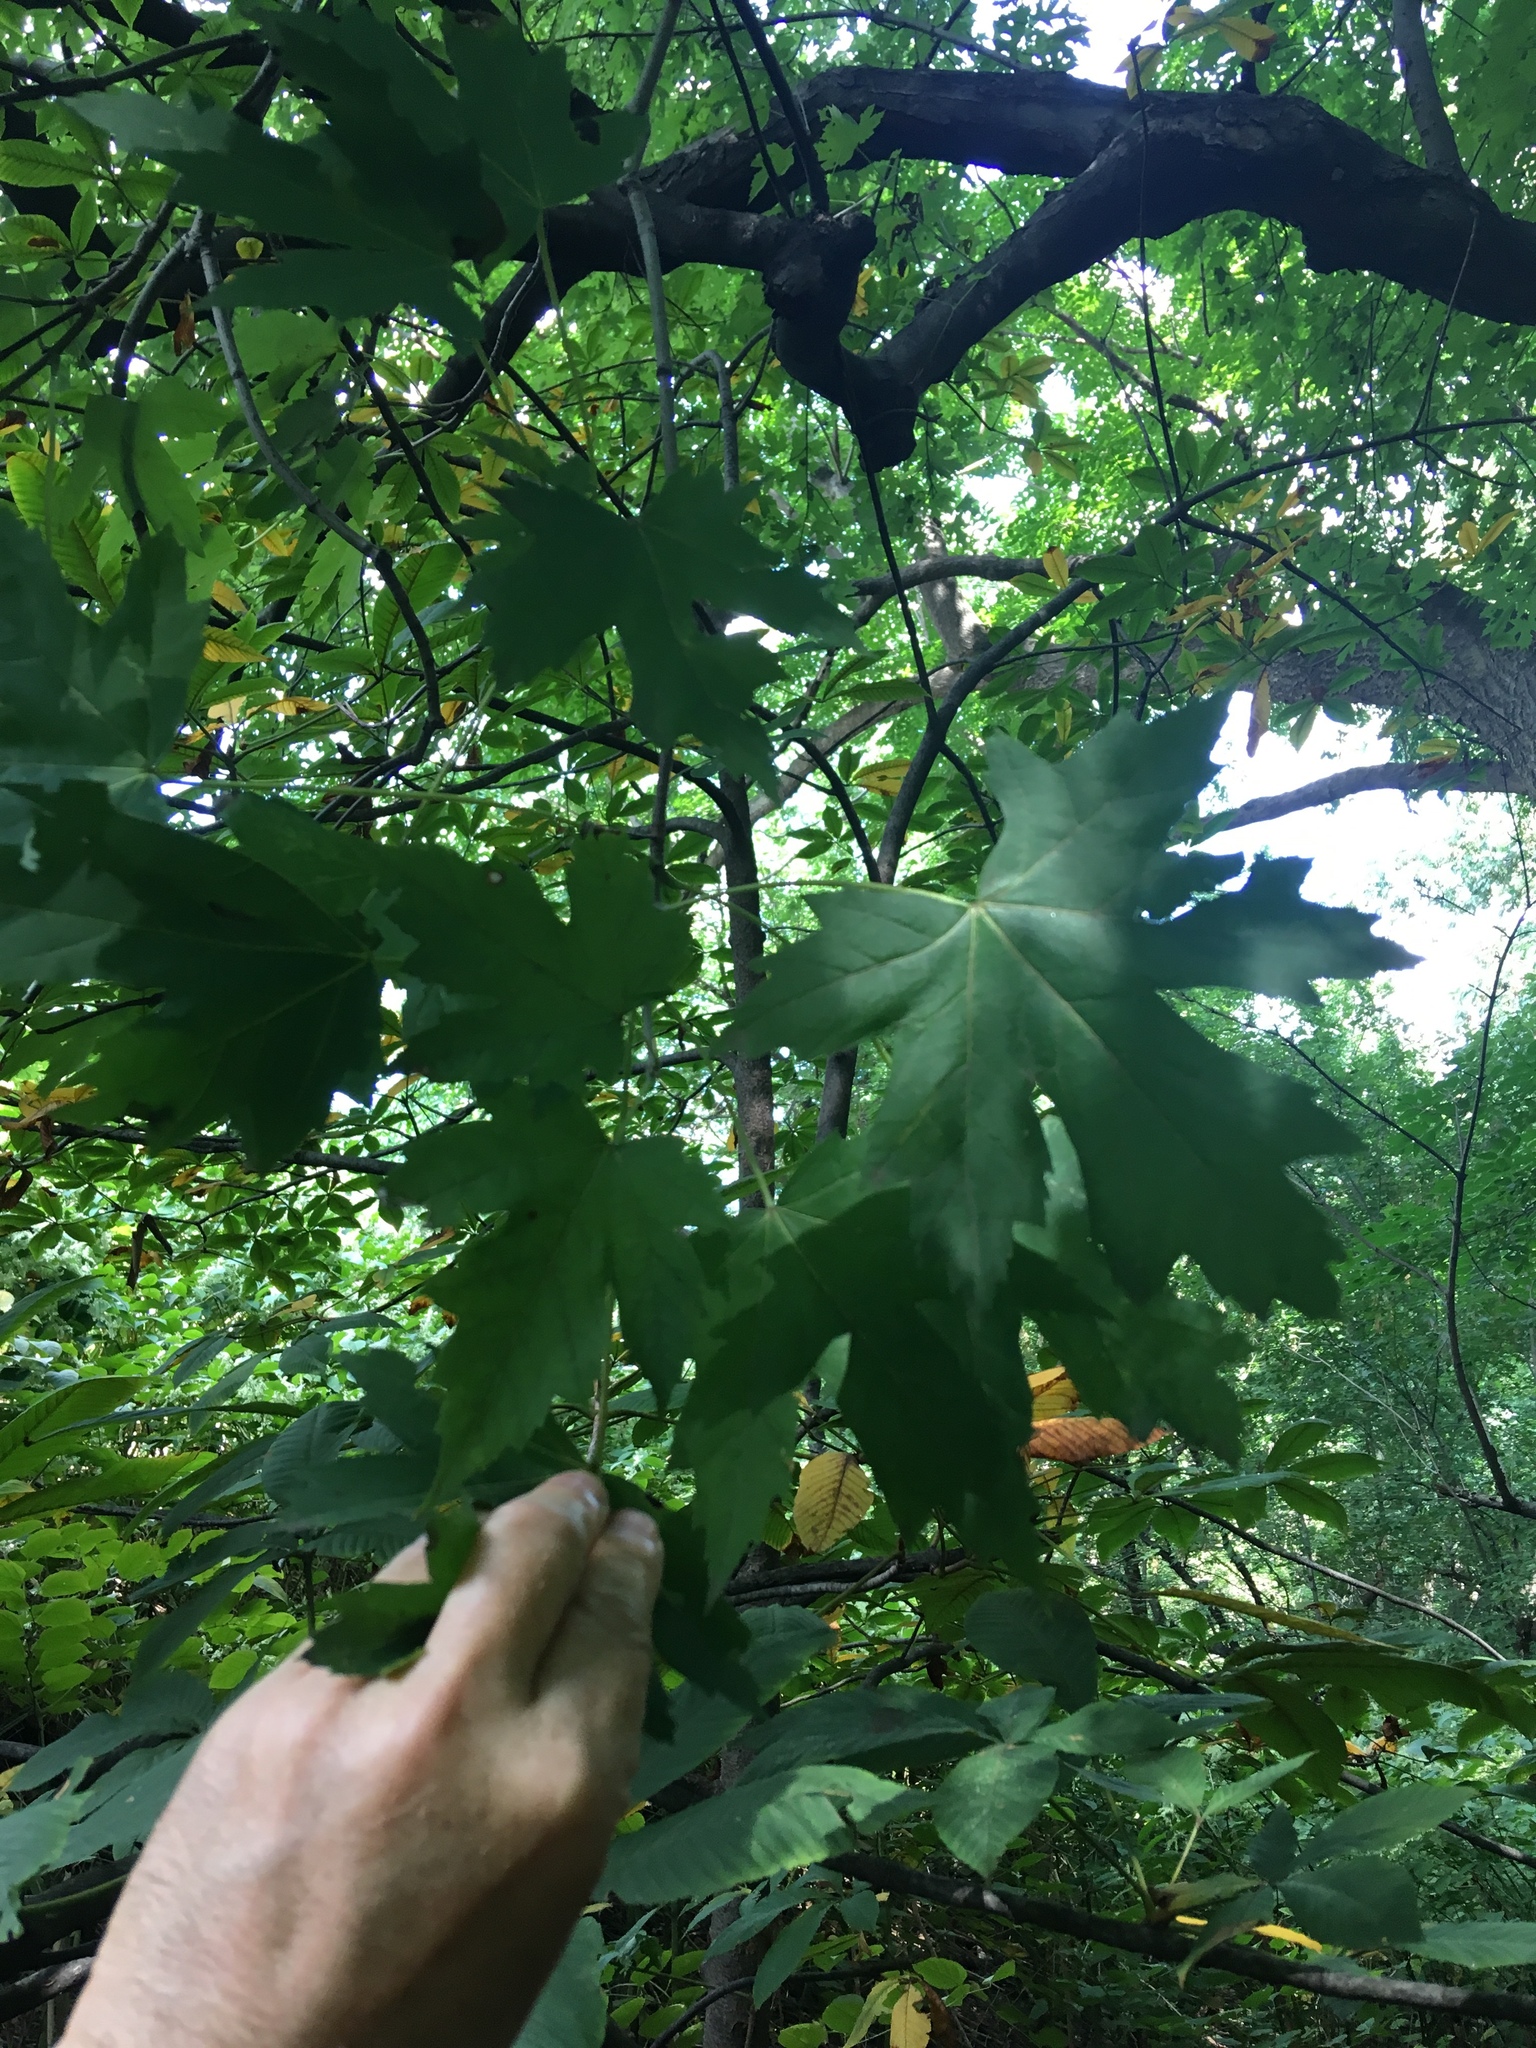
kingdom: Plantae
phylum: Tracheophyta
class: Magnoliopsida
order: Sapindales
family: Sapindaceae
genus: Acer
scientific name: Acer saccharinum
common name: Silver maple
